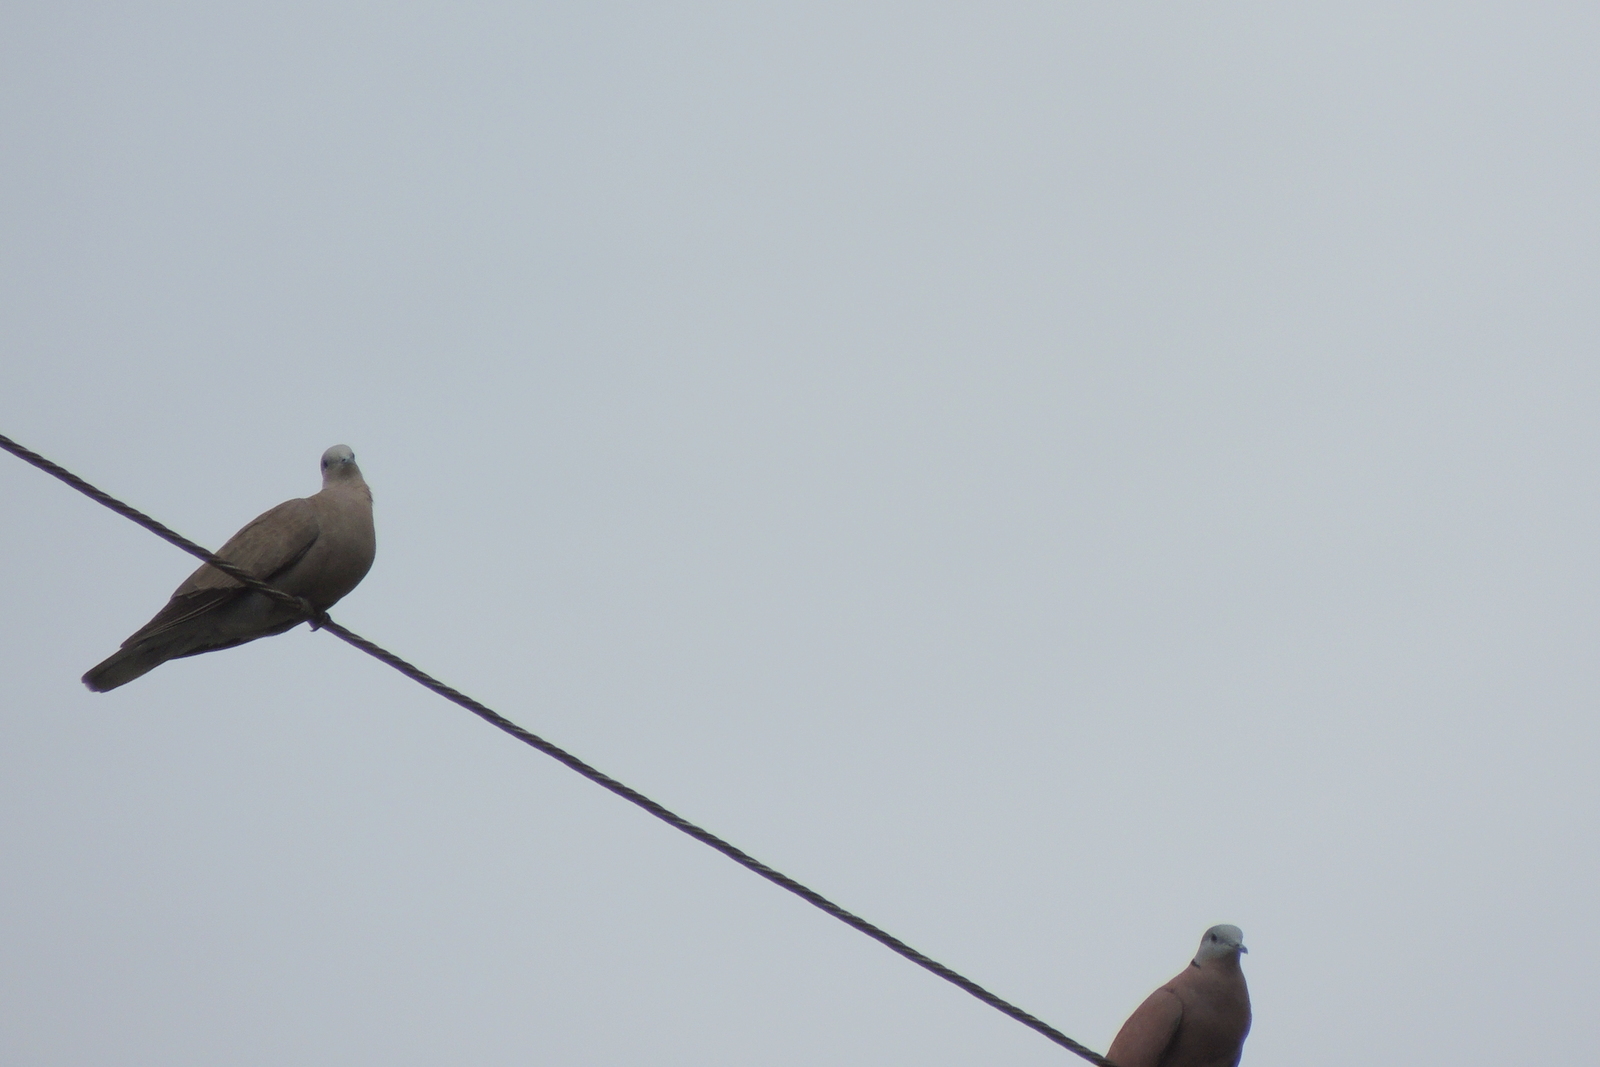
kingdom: Animalia
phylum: Chordata
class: Aves
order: Columbiformes
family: Columbidae
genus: Streptopelia
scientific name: Streptopelia tranquebarica
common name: Red turtle dove
